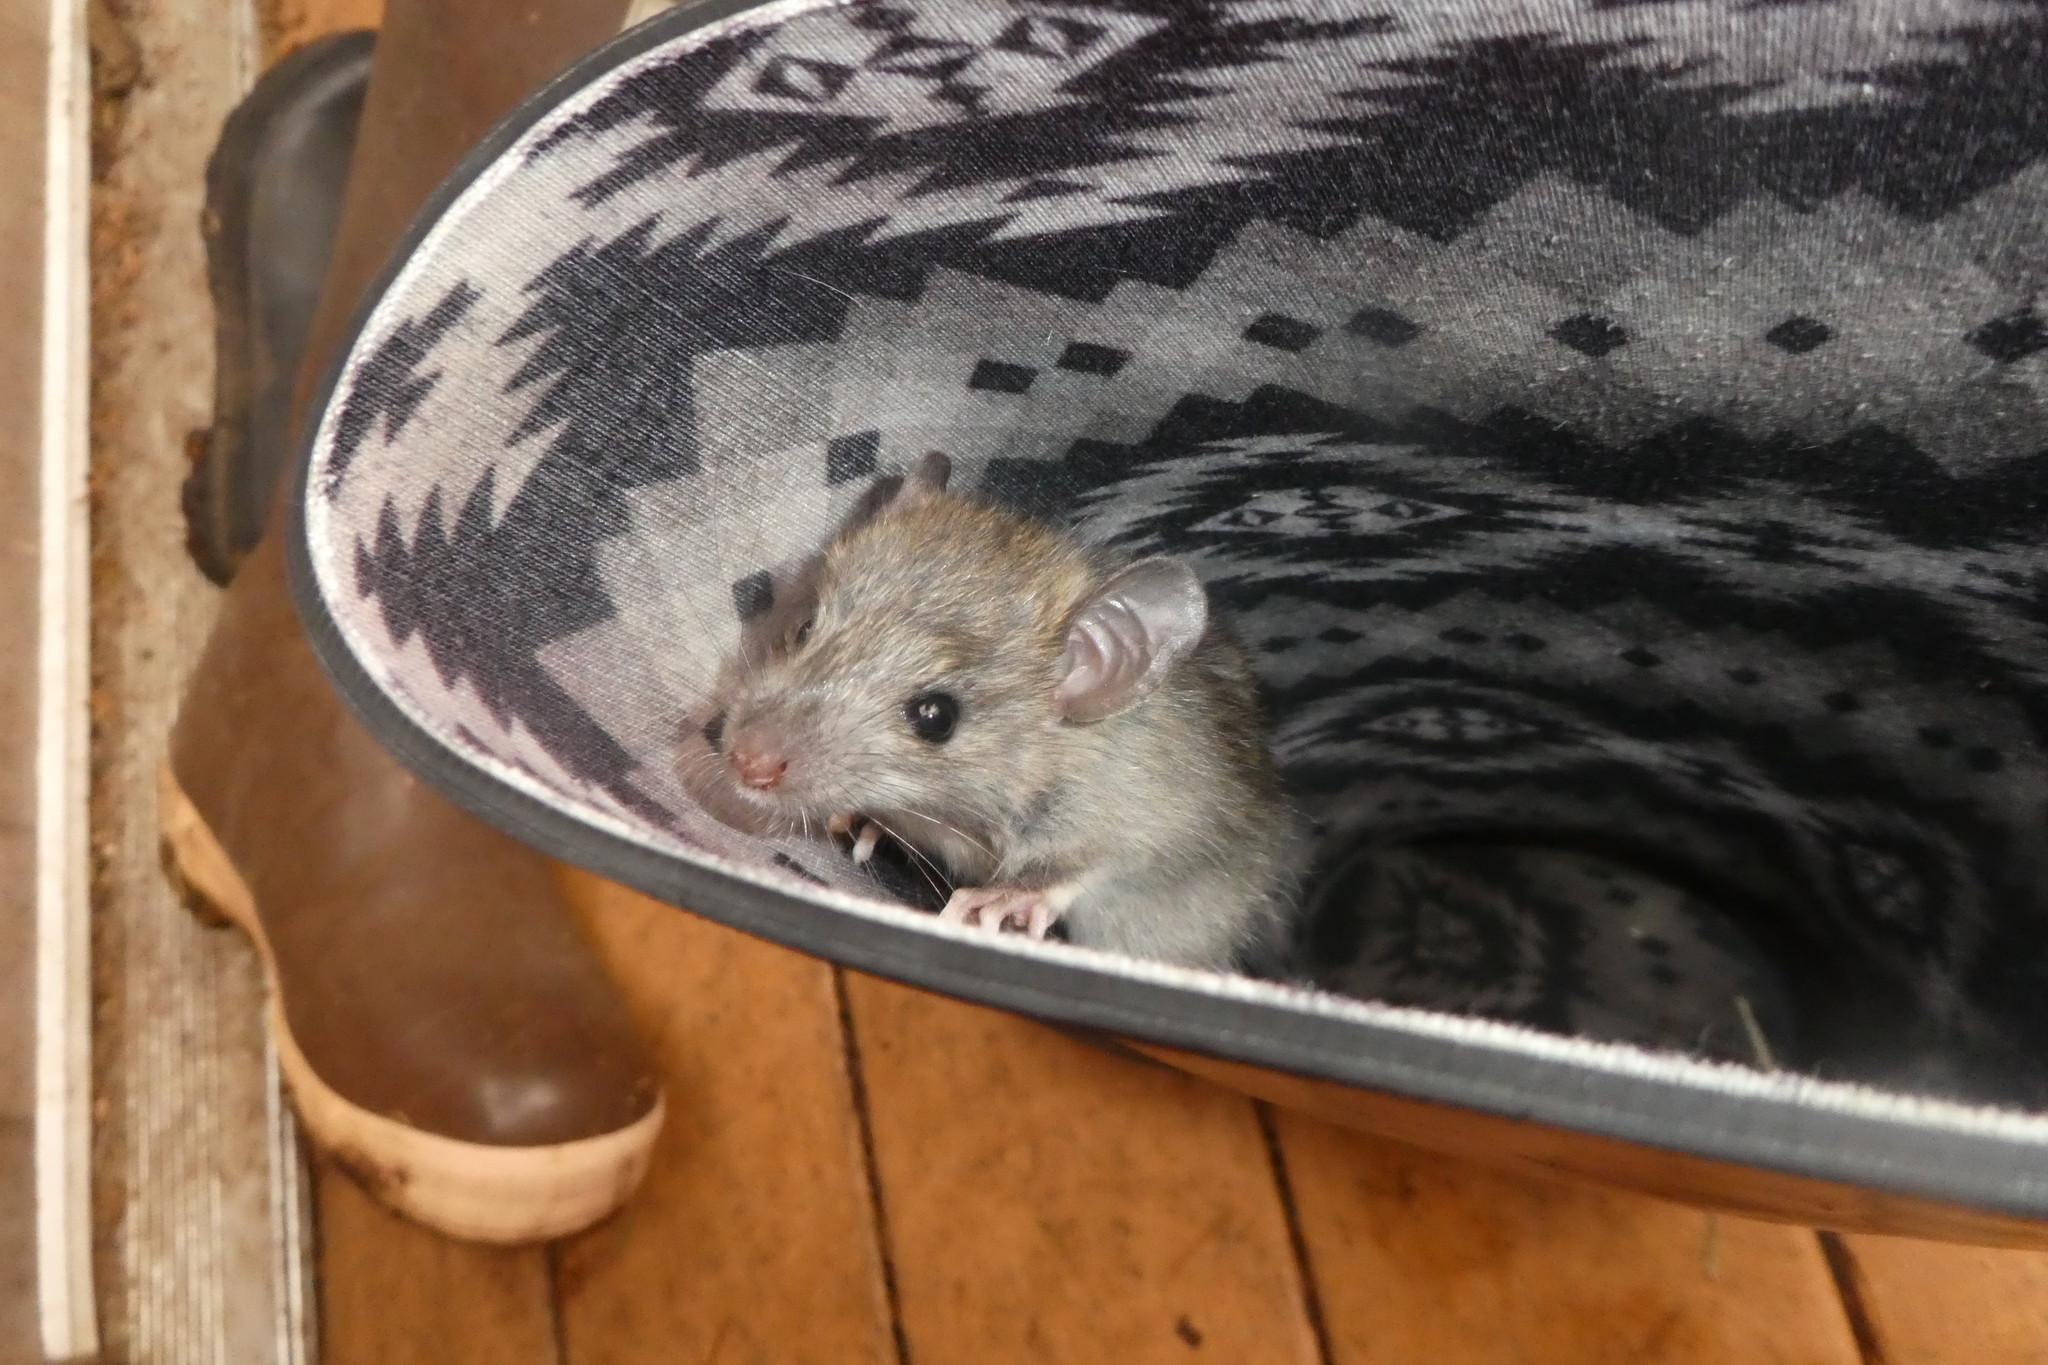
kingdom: Animalia
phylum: Chordata
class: Mammalia
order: Rodentia
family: Muridae
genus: Rattus
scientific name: Rattus norvegicus
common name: Brown rat
